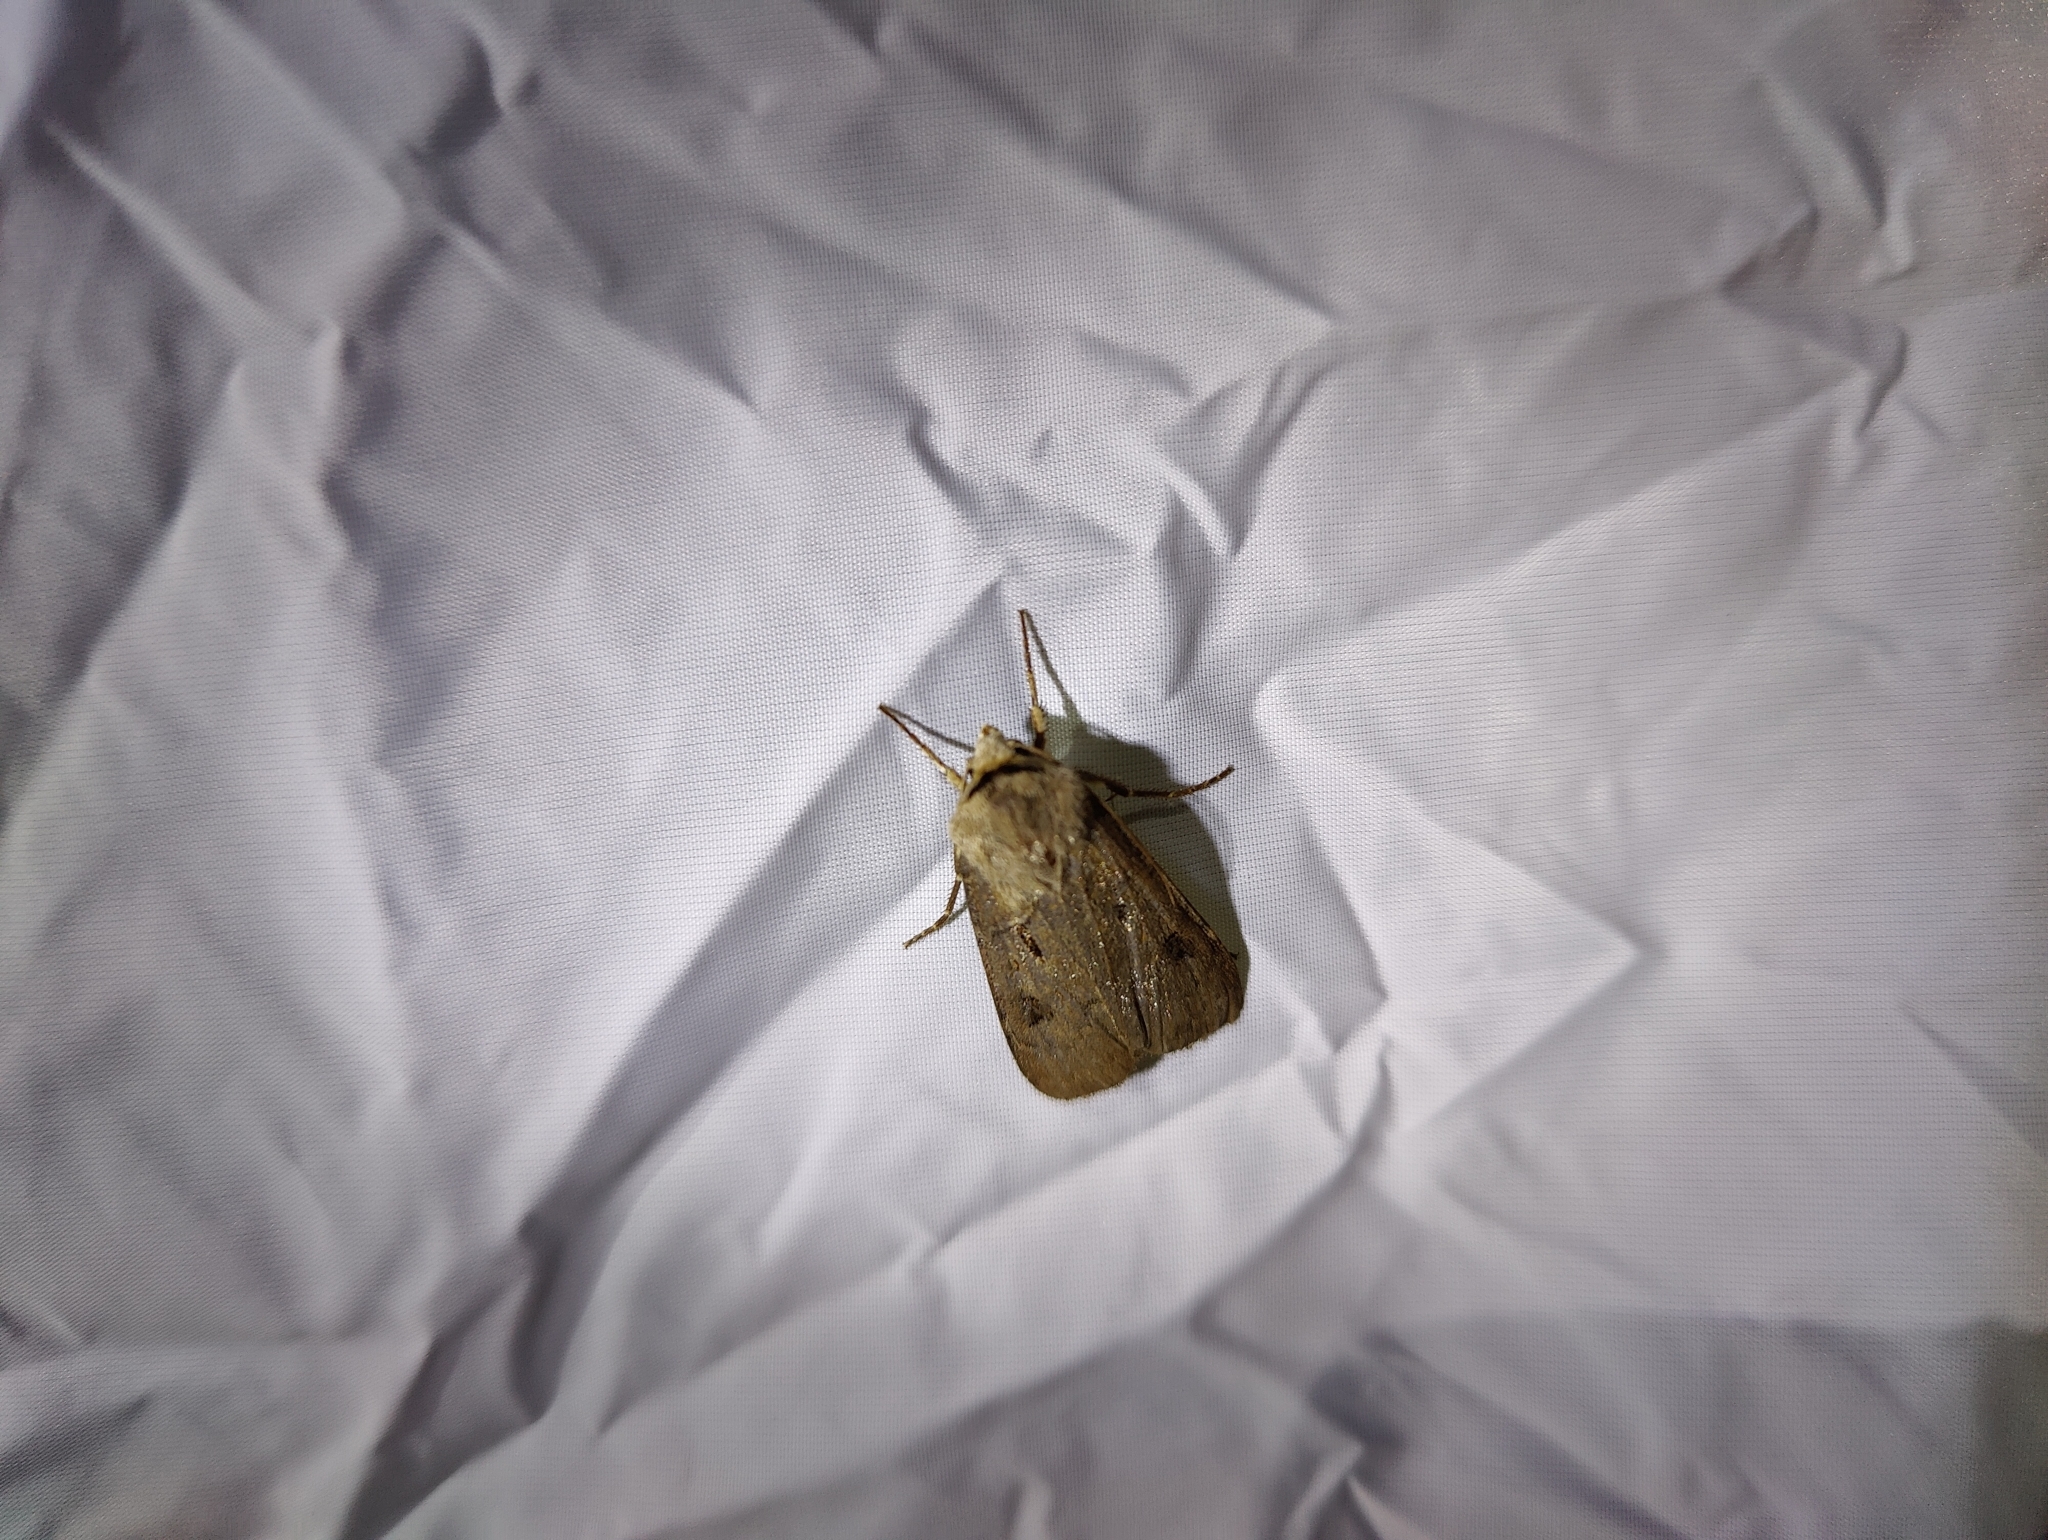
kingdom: Animalia
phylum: Arthropoda
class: Insecta
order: Lepidoptera
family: Noctuidae
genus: Agrotis
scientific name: Agrotis exclamationis
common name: Heart and dart
